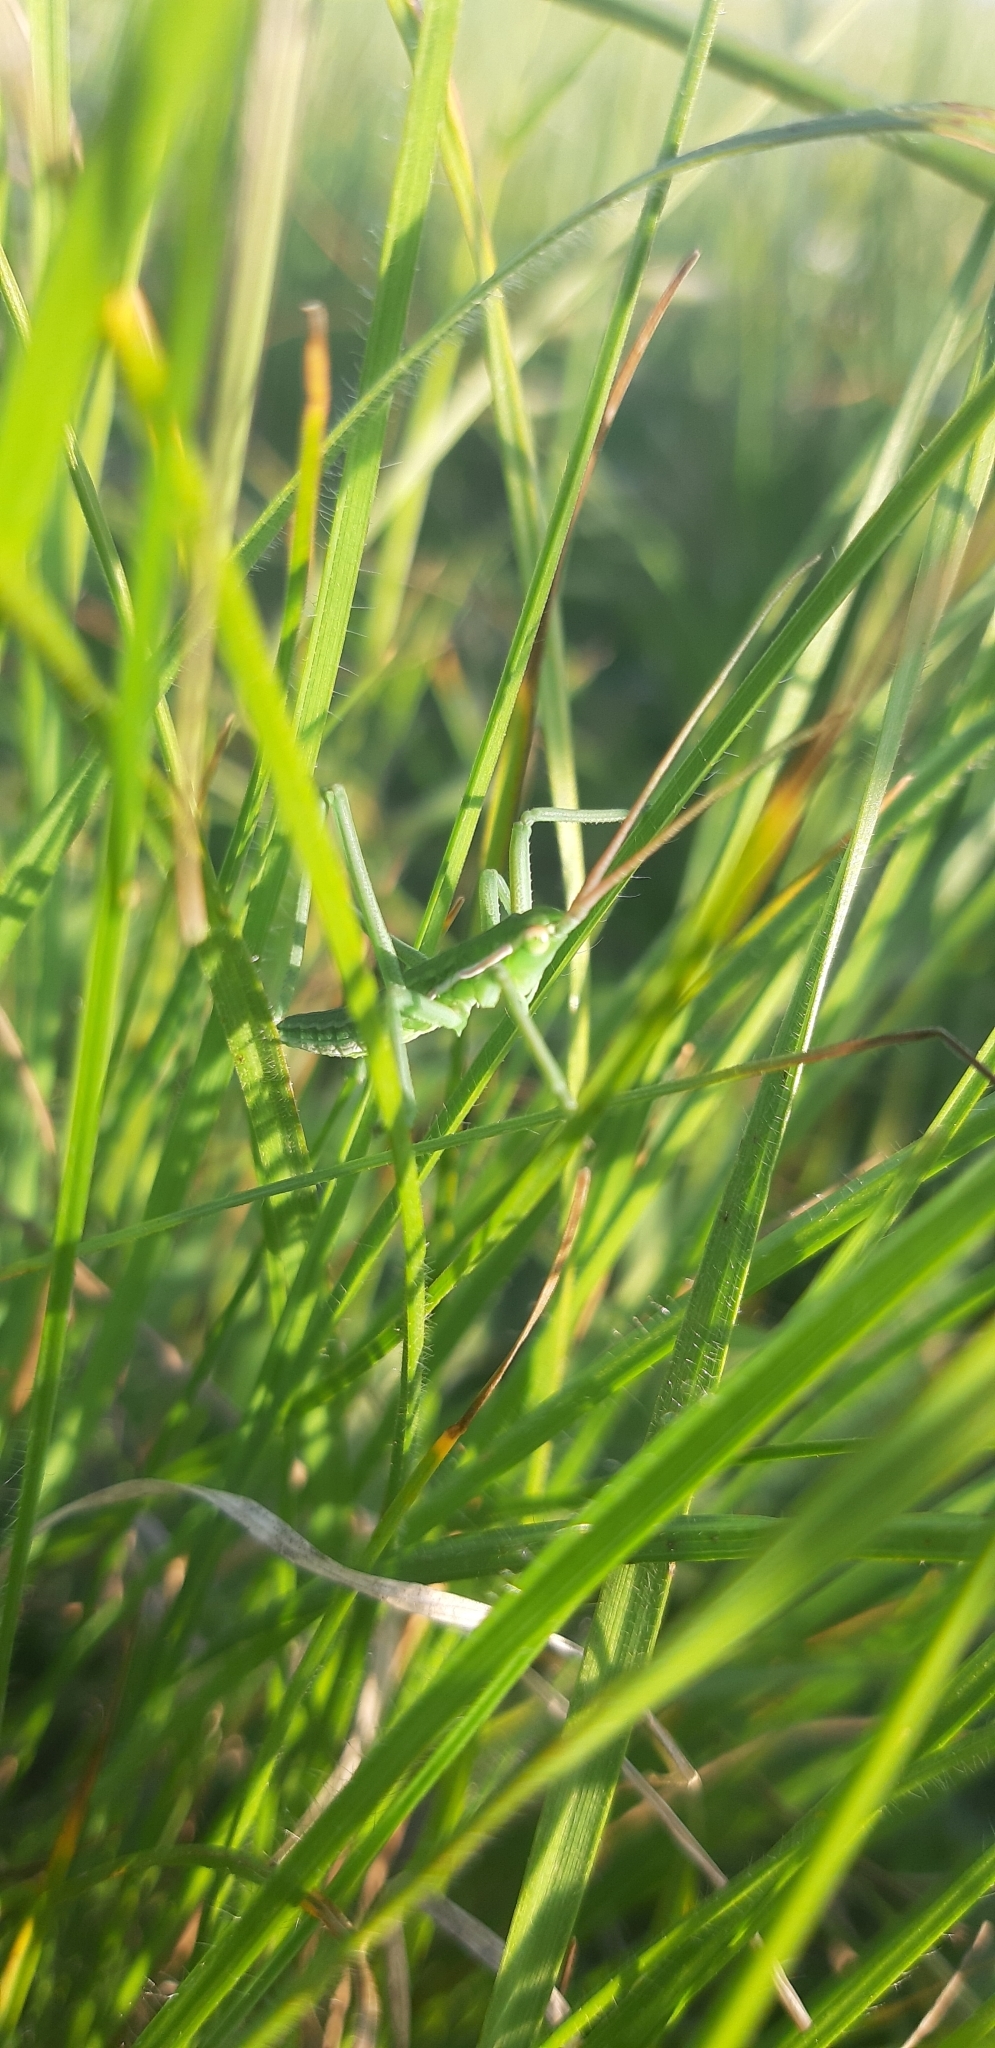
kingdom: Animalia
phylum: Arthropoda
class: Insecta
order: Orthoptera
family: Tettigoniidae
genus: Saga
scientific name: Saga pedo
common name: Common predatory bush-cricket
